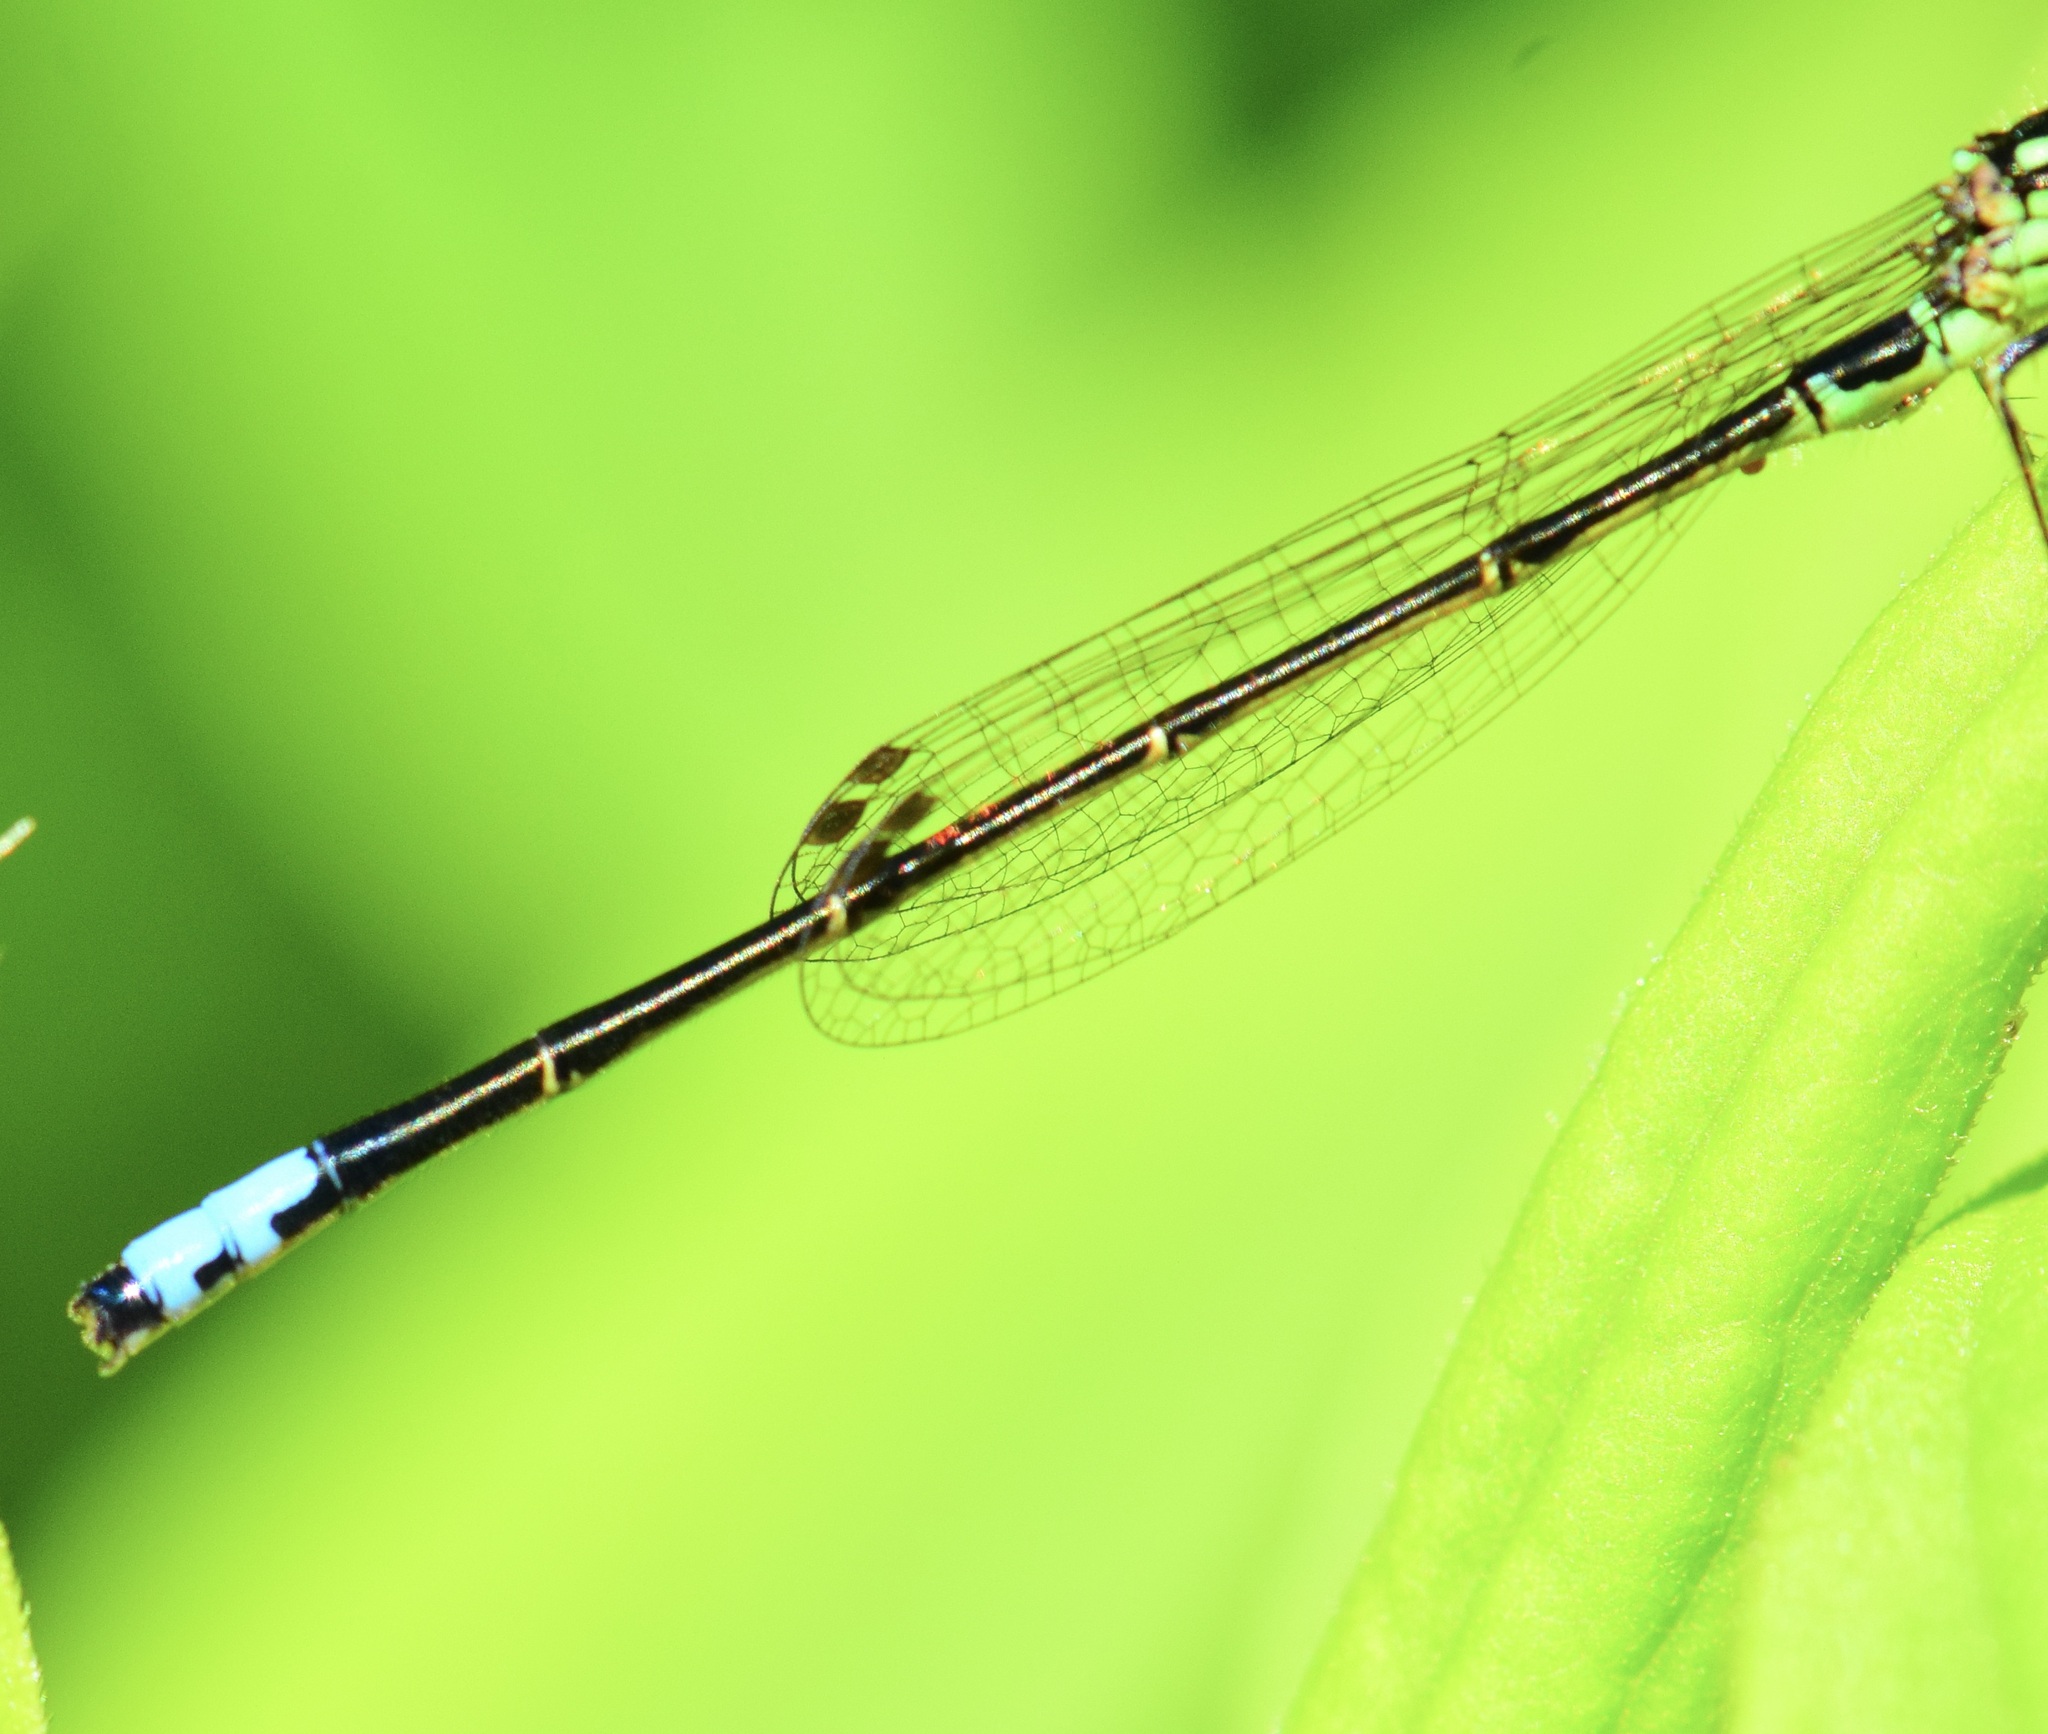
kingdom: Animalia
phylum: Arthropoda
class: Insecta
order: Odonata
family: Coenagrionidae
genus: Ischnura
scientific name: Ischnura verticalis
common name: Eastern forktail
